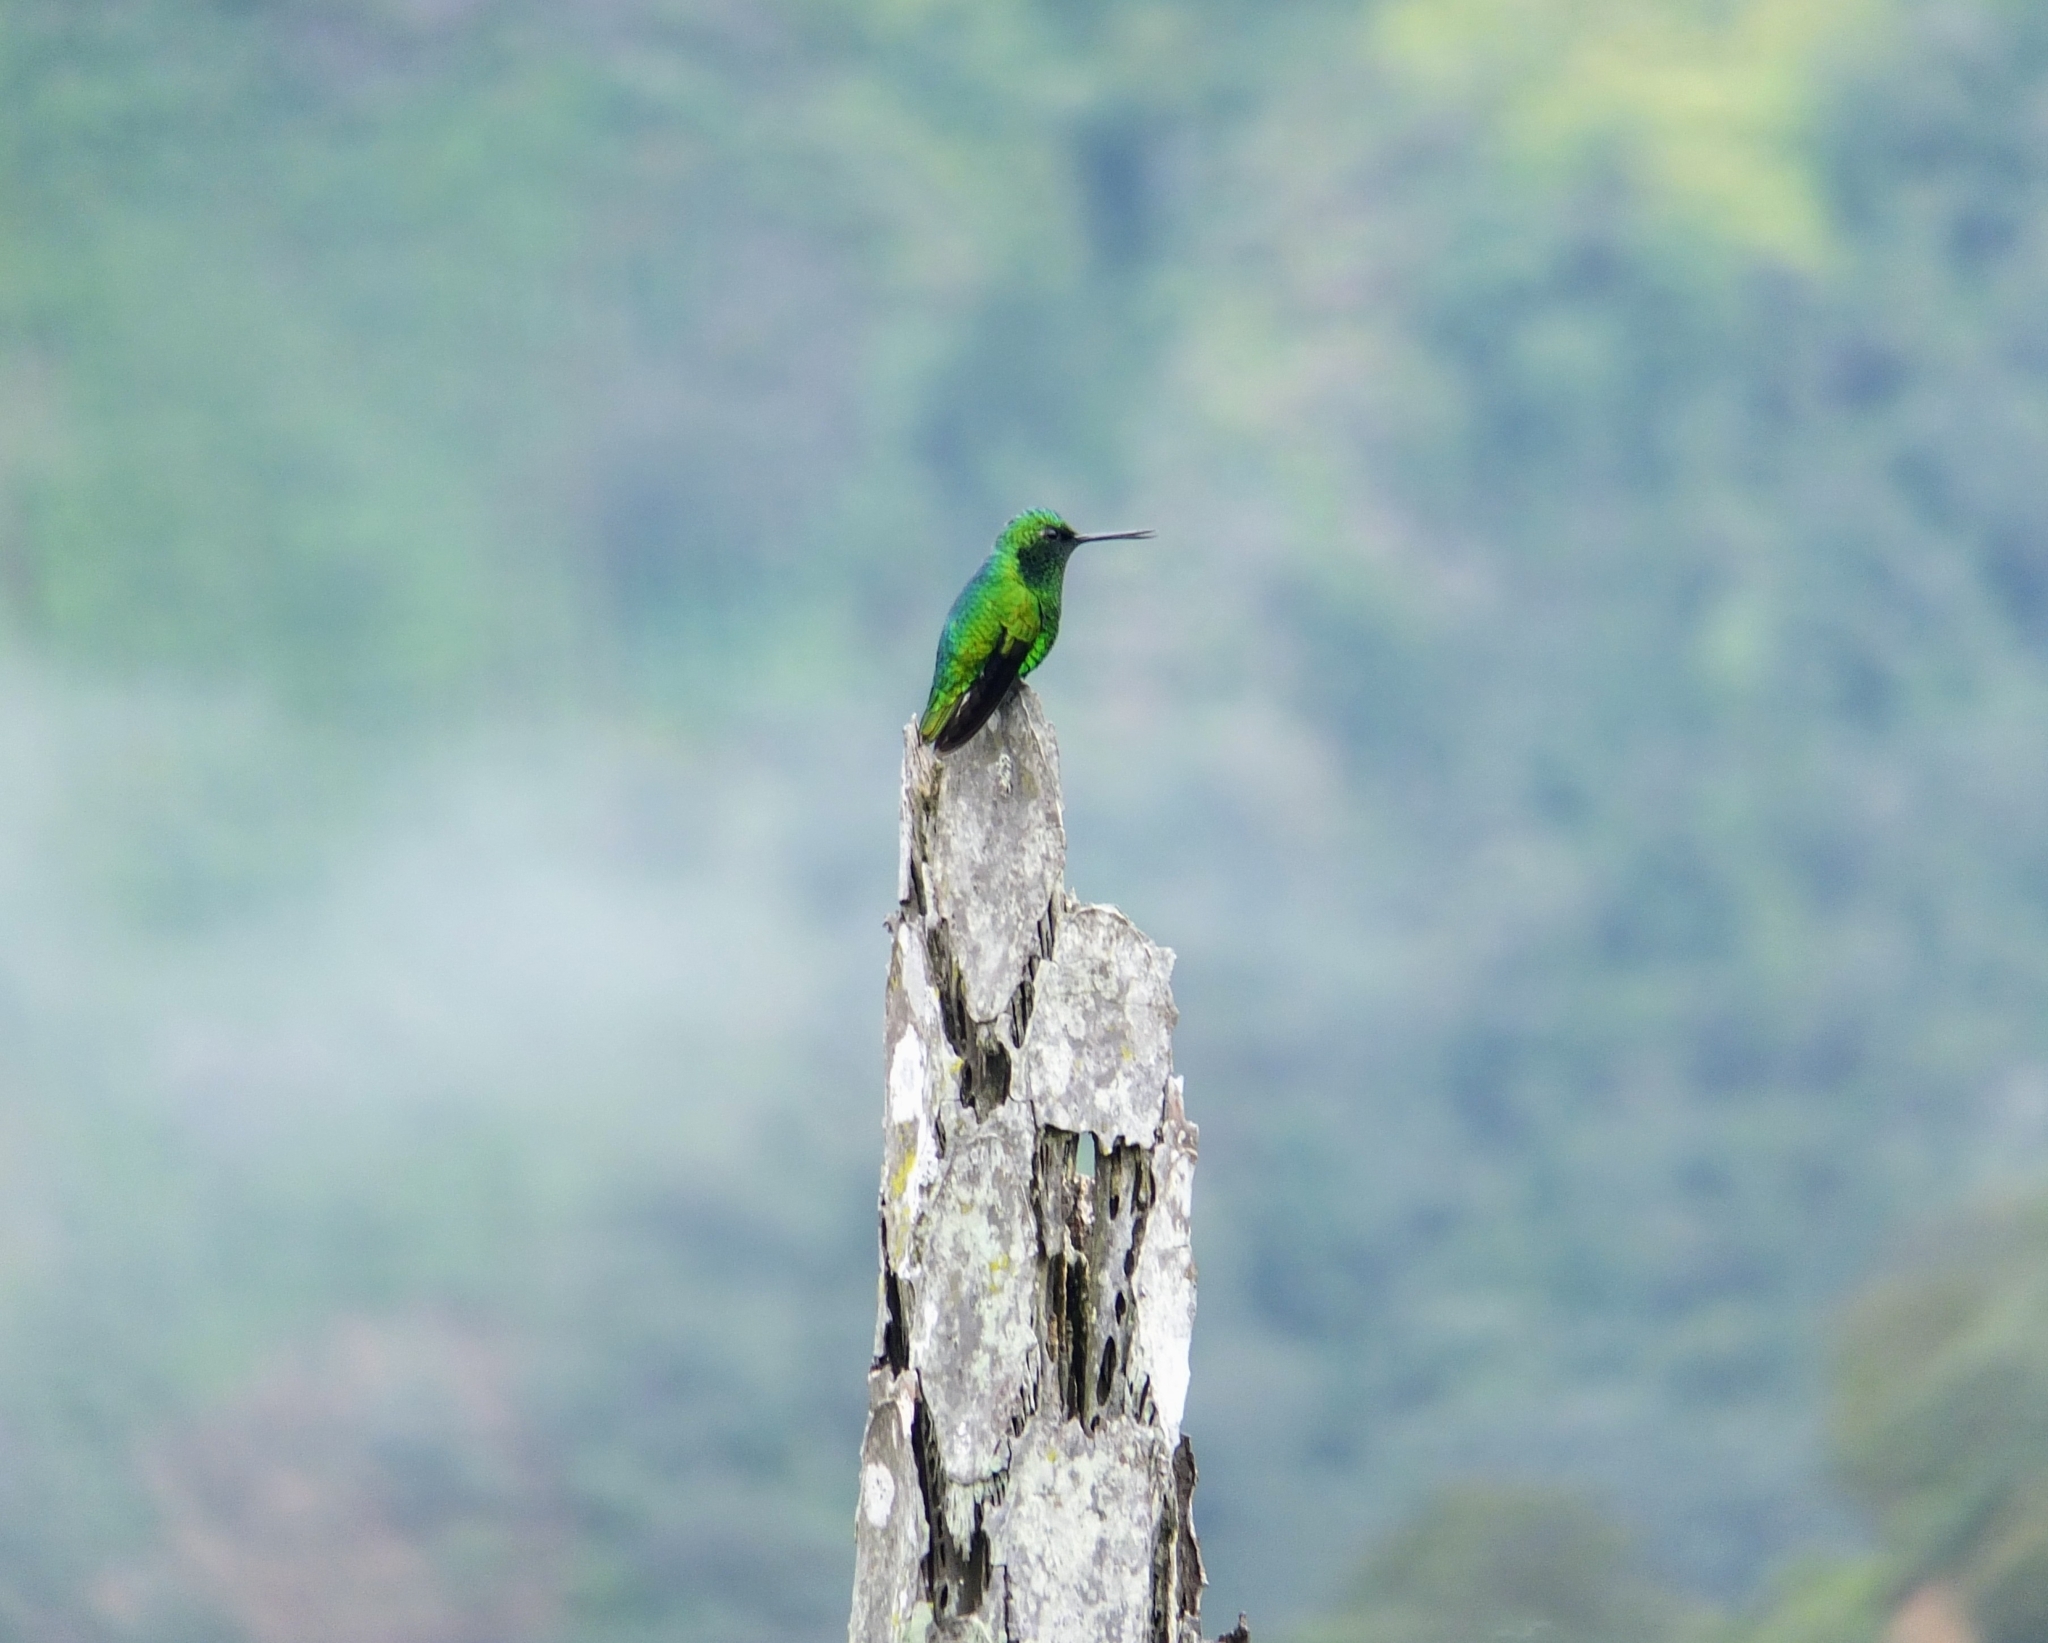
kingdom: Animalia
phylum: Chordata
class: Aves
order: Apodiformes
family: Trochilidae
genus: Saucerottia
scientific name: Saucerottia saucerottei
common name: Steely-vented hummingbird
